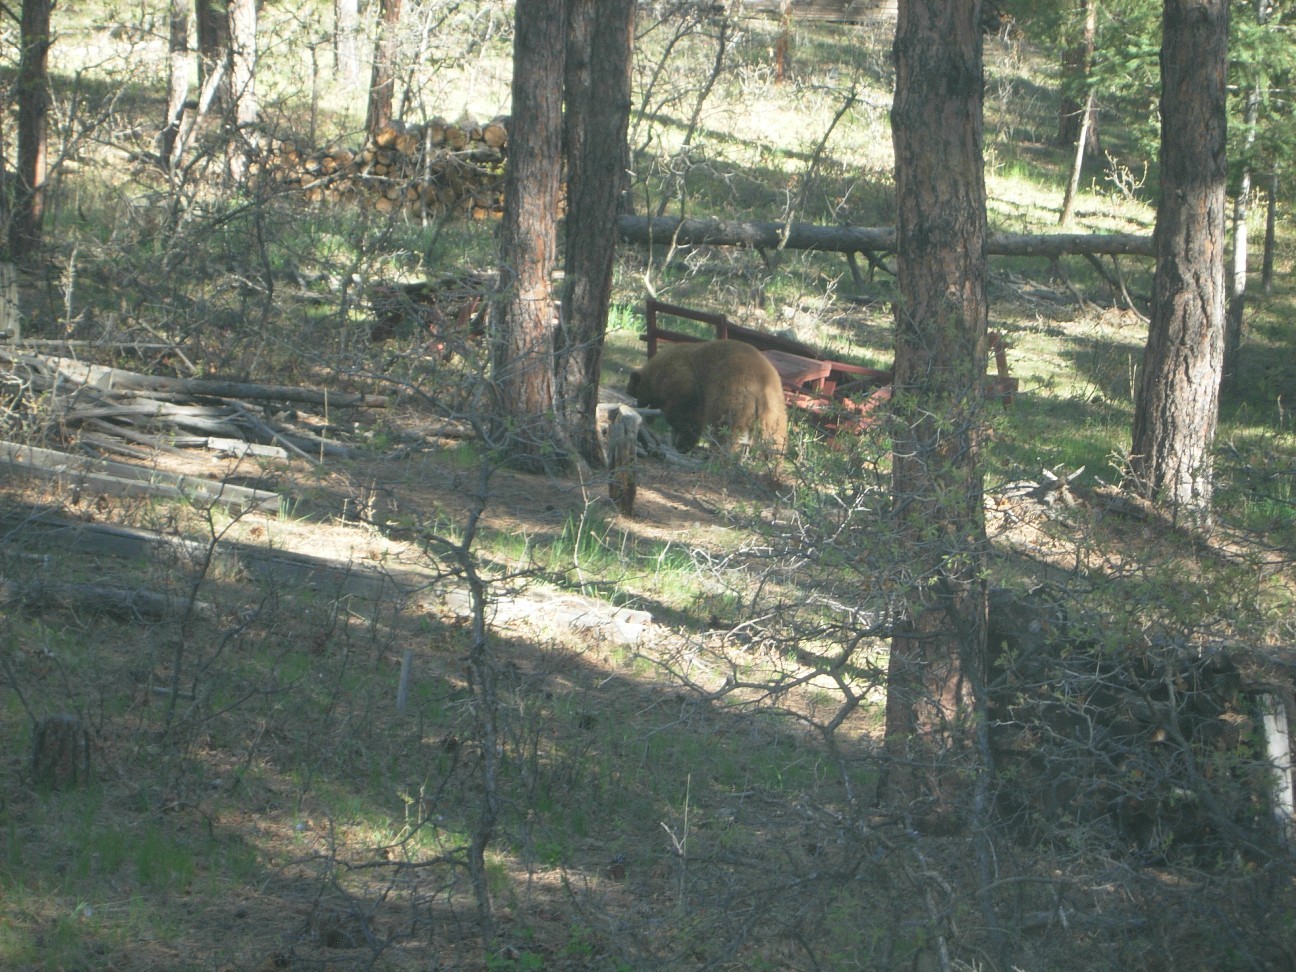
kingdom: Animalia
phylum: Chordata
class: Mammalia
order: Carnivora
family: Ursidae
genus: Ursus
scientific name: Ursus americanus
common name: American black bear
